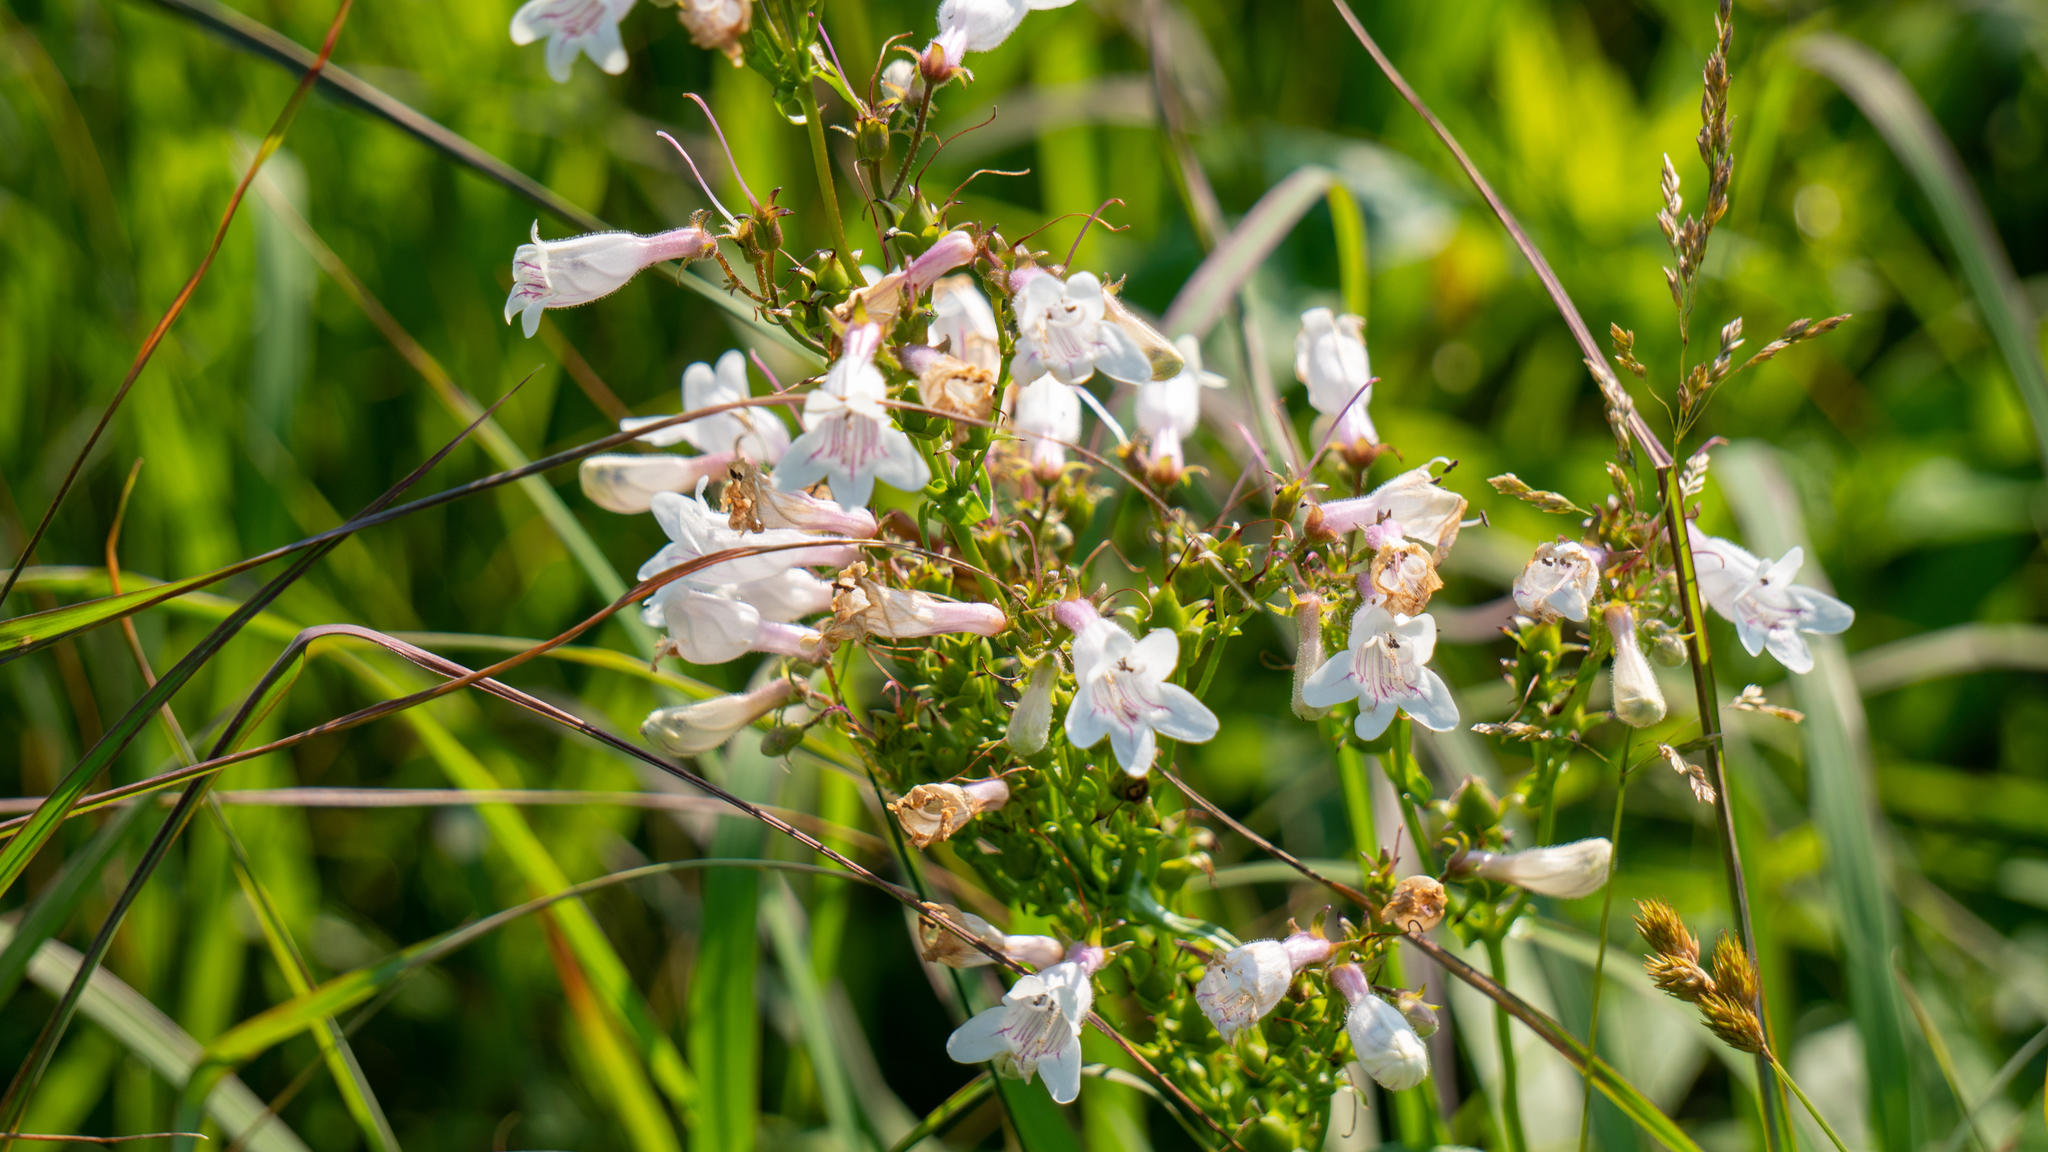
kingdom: Plantae
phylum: Tracheophyta
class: Magnoliopsida
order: Lamiales
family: Plantaginaceae
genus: Penstemon
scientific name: Penstemon digitalis
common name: Foxglove beardtongue
